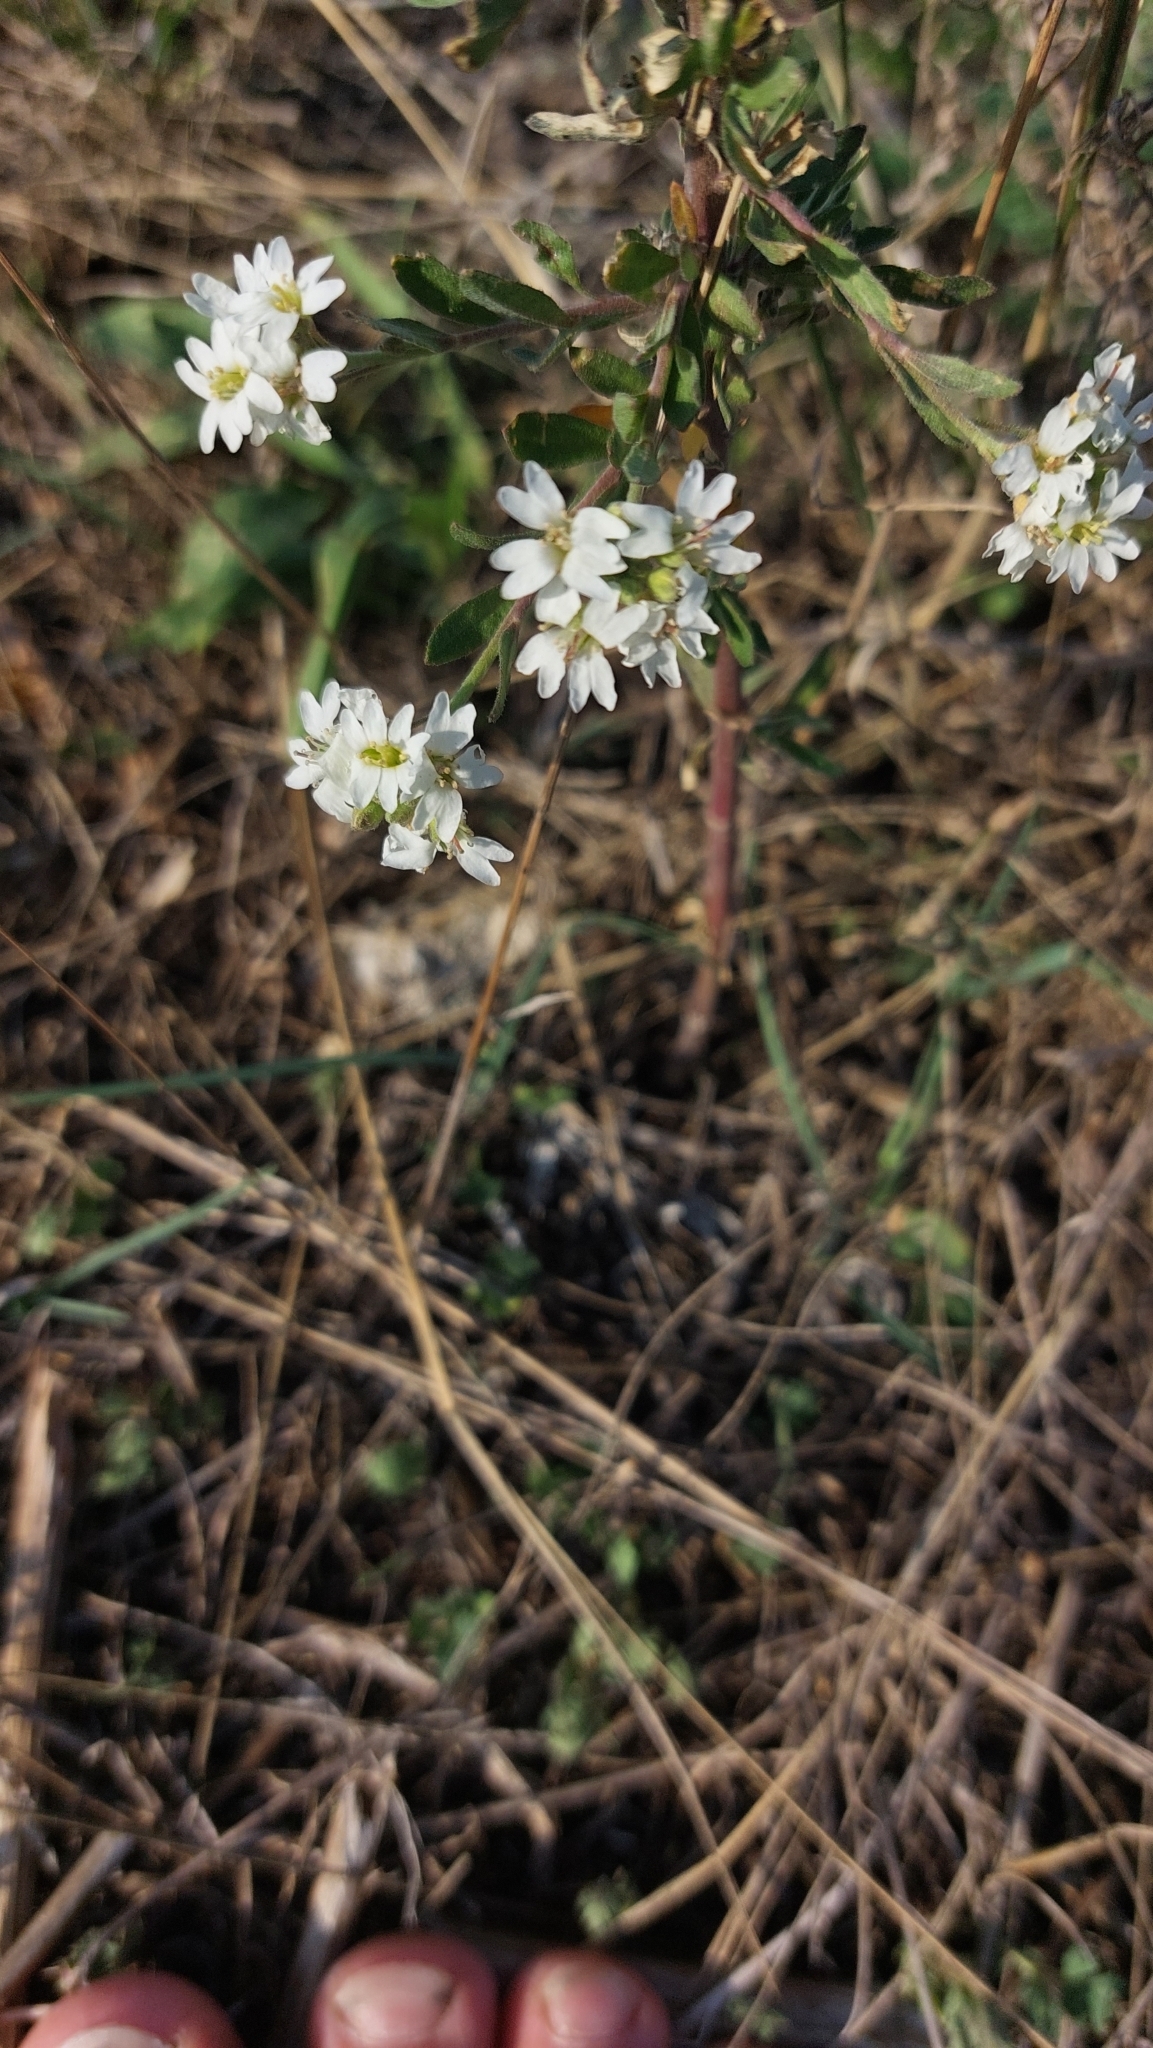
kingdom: Plantae
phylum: Tracheophyta
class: Magnoliopsida
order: Brassicales
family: Brassicaceae
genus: Berteroa
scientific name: Berteroa incana
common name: Hoary alison
